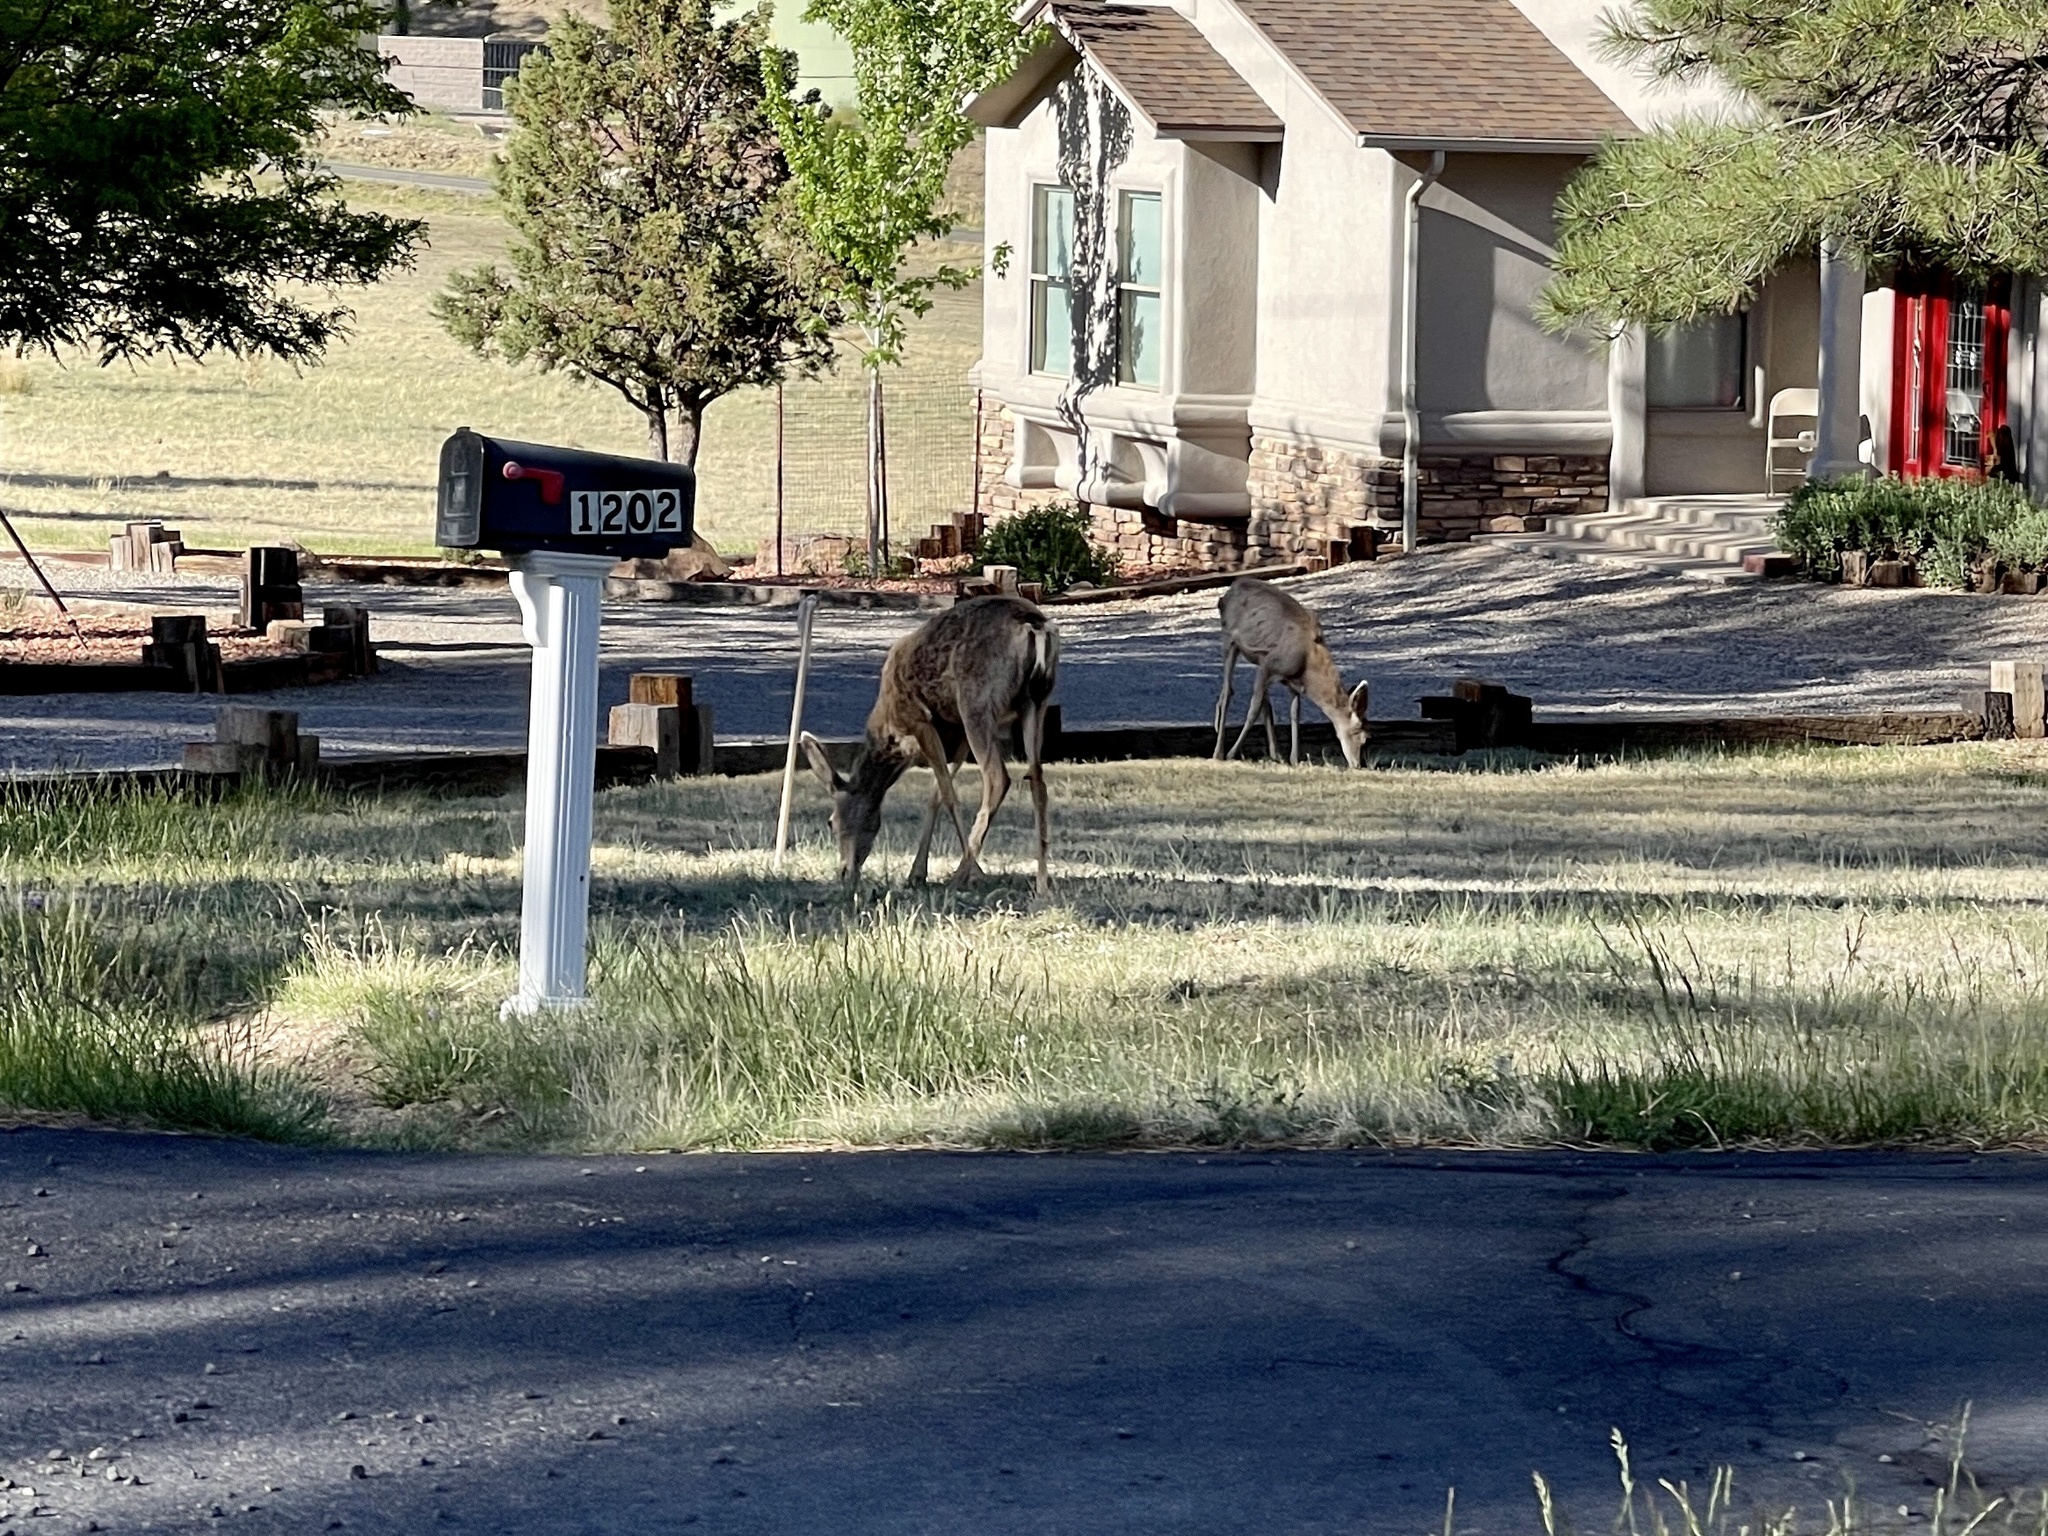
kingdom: Animalia
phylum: Chordata
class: Mammalia
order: Artiodactyla
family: Cervidae
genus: Odocoileus
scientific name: Odocoileus hemionus
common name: Mule deer
